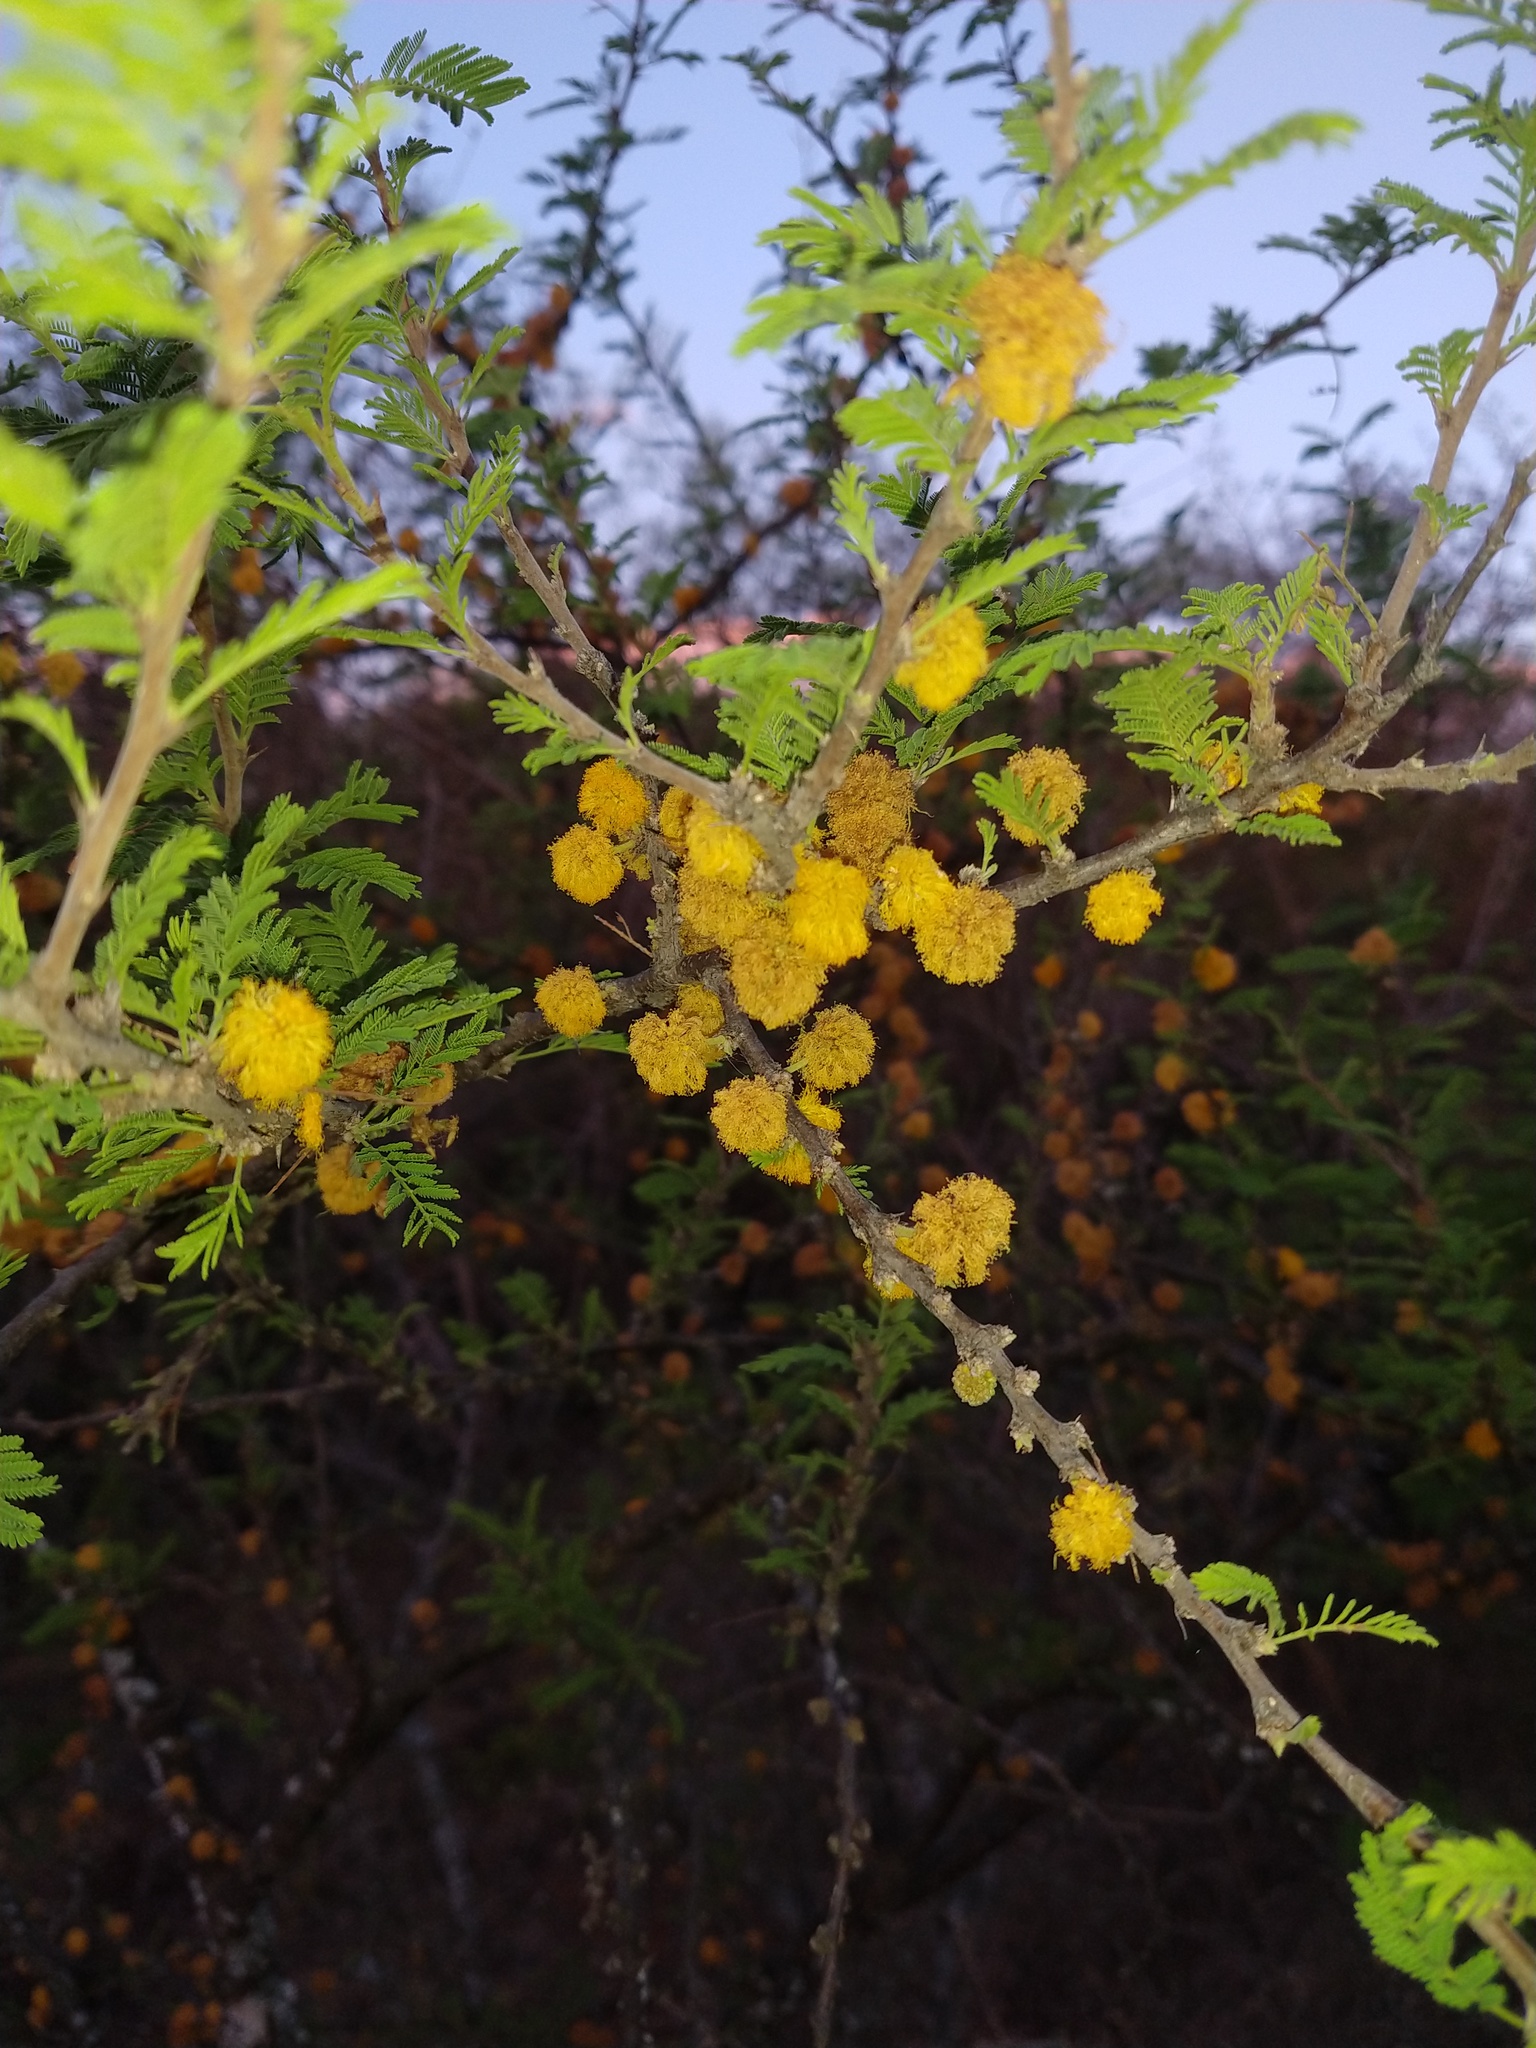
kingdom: Plantae
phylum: Tracheophyta
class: Magnoliopsida
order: Fabales
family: Fabaceae
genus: Vachellia
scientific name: Vachellia caven
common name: Roman cassie
